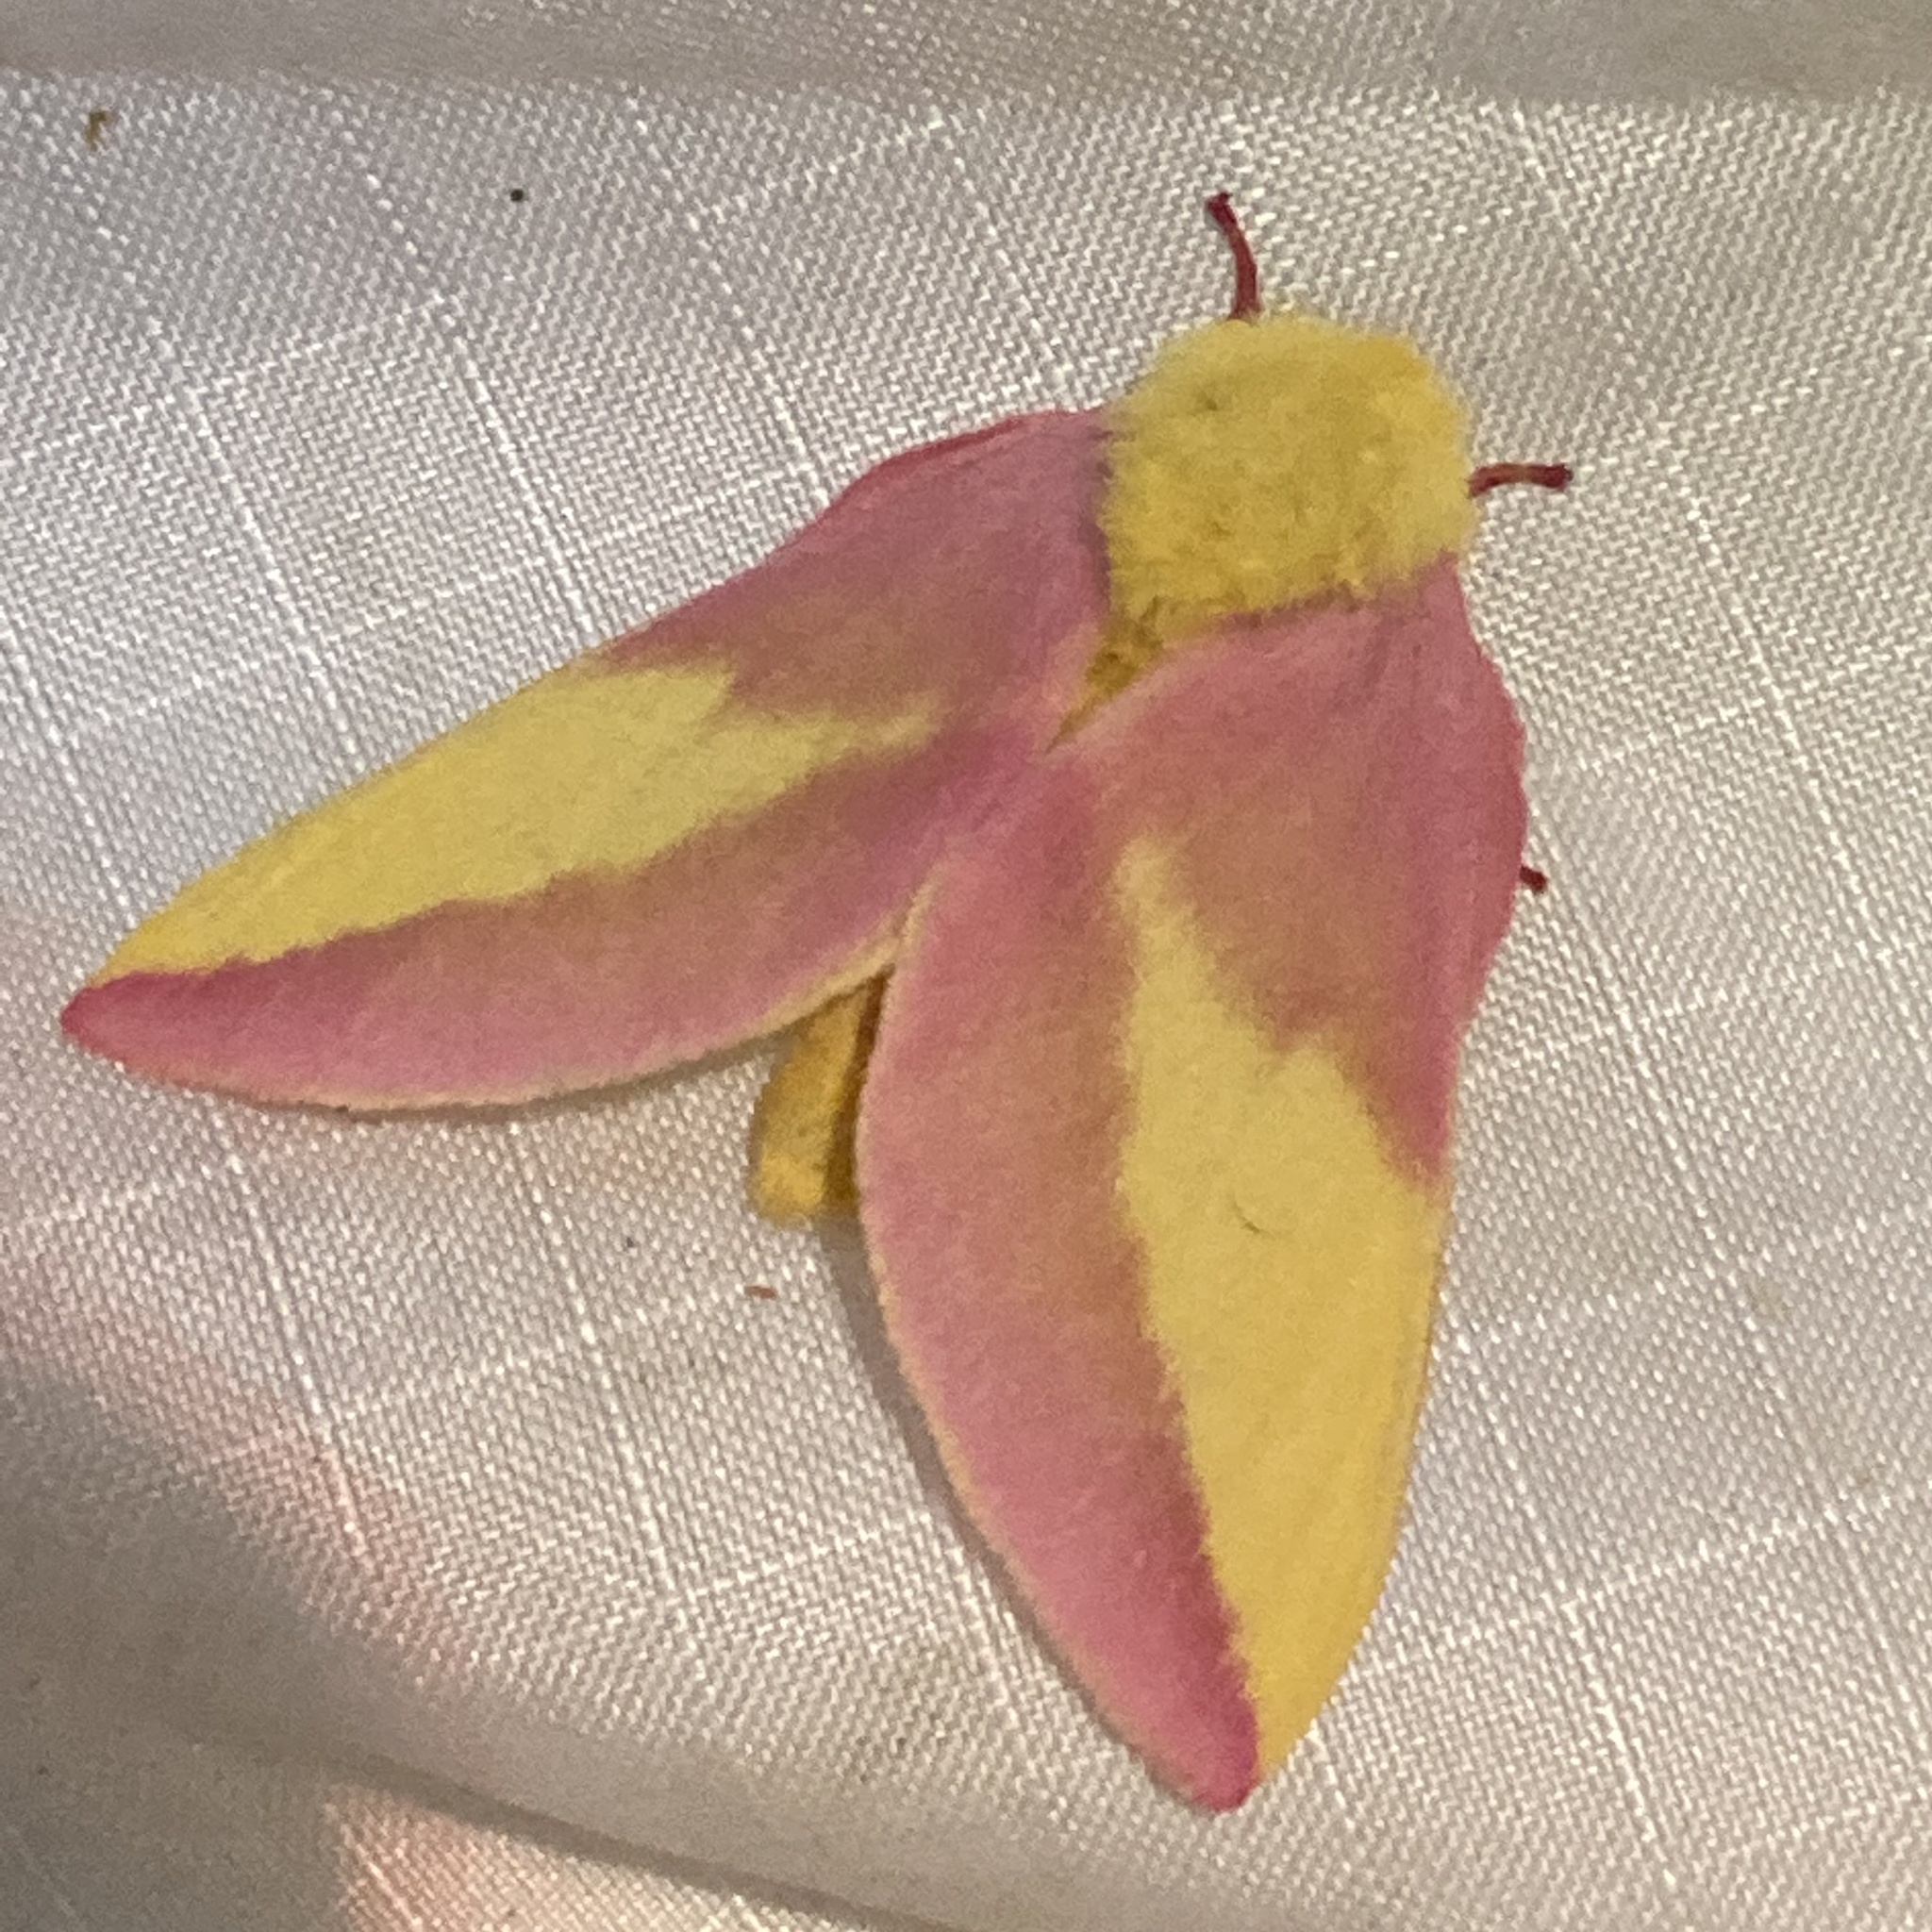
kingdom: Animalia
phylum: Arthropoda
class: Insecta
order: Lepidoptera
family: Saturniidae
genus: Dryocampa
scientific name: Dryocampa rubicunda
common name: Rosy maple moth
